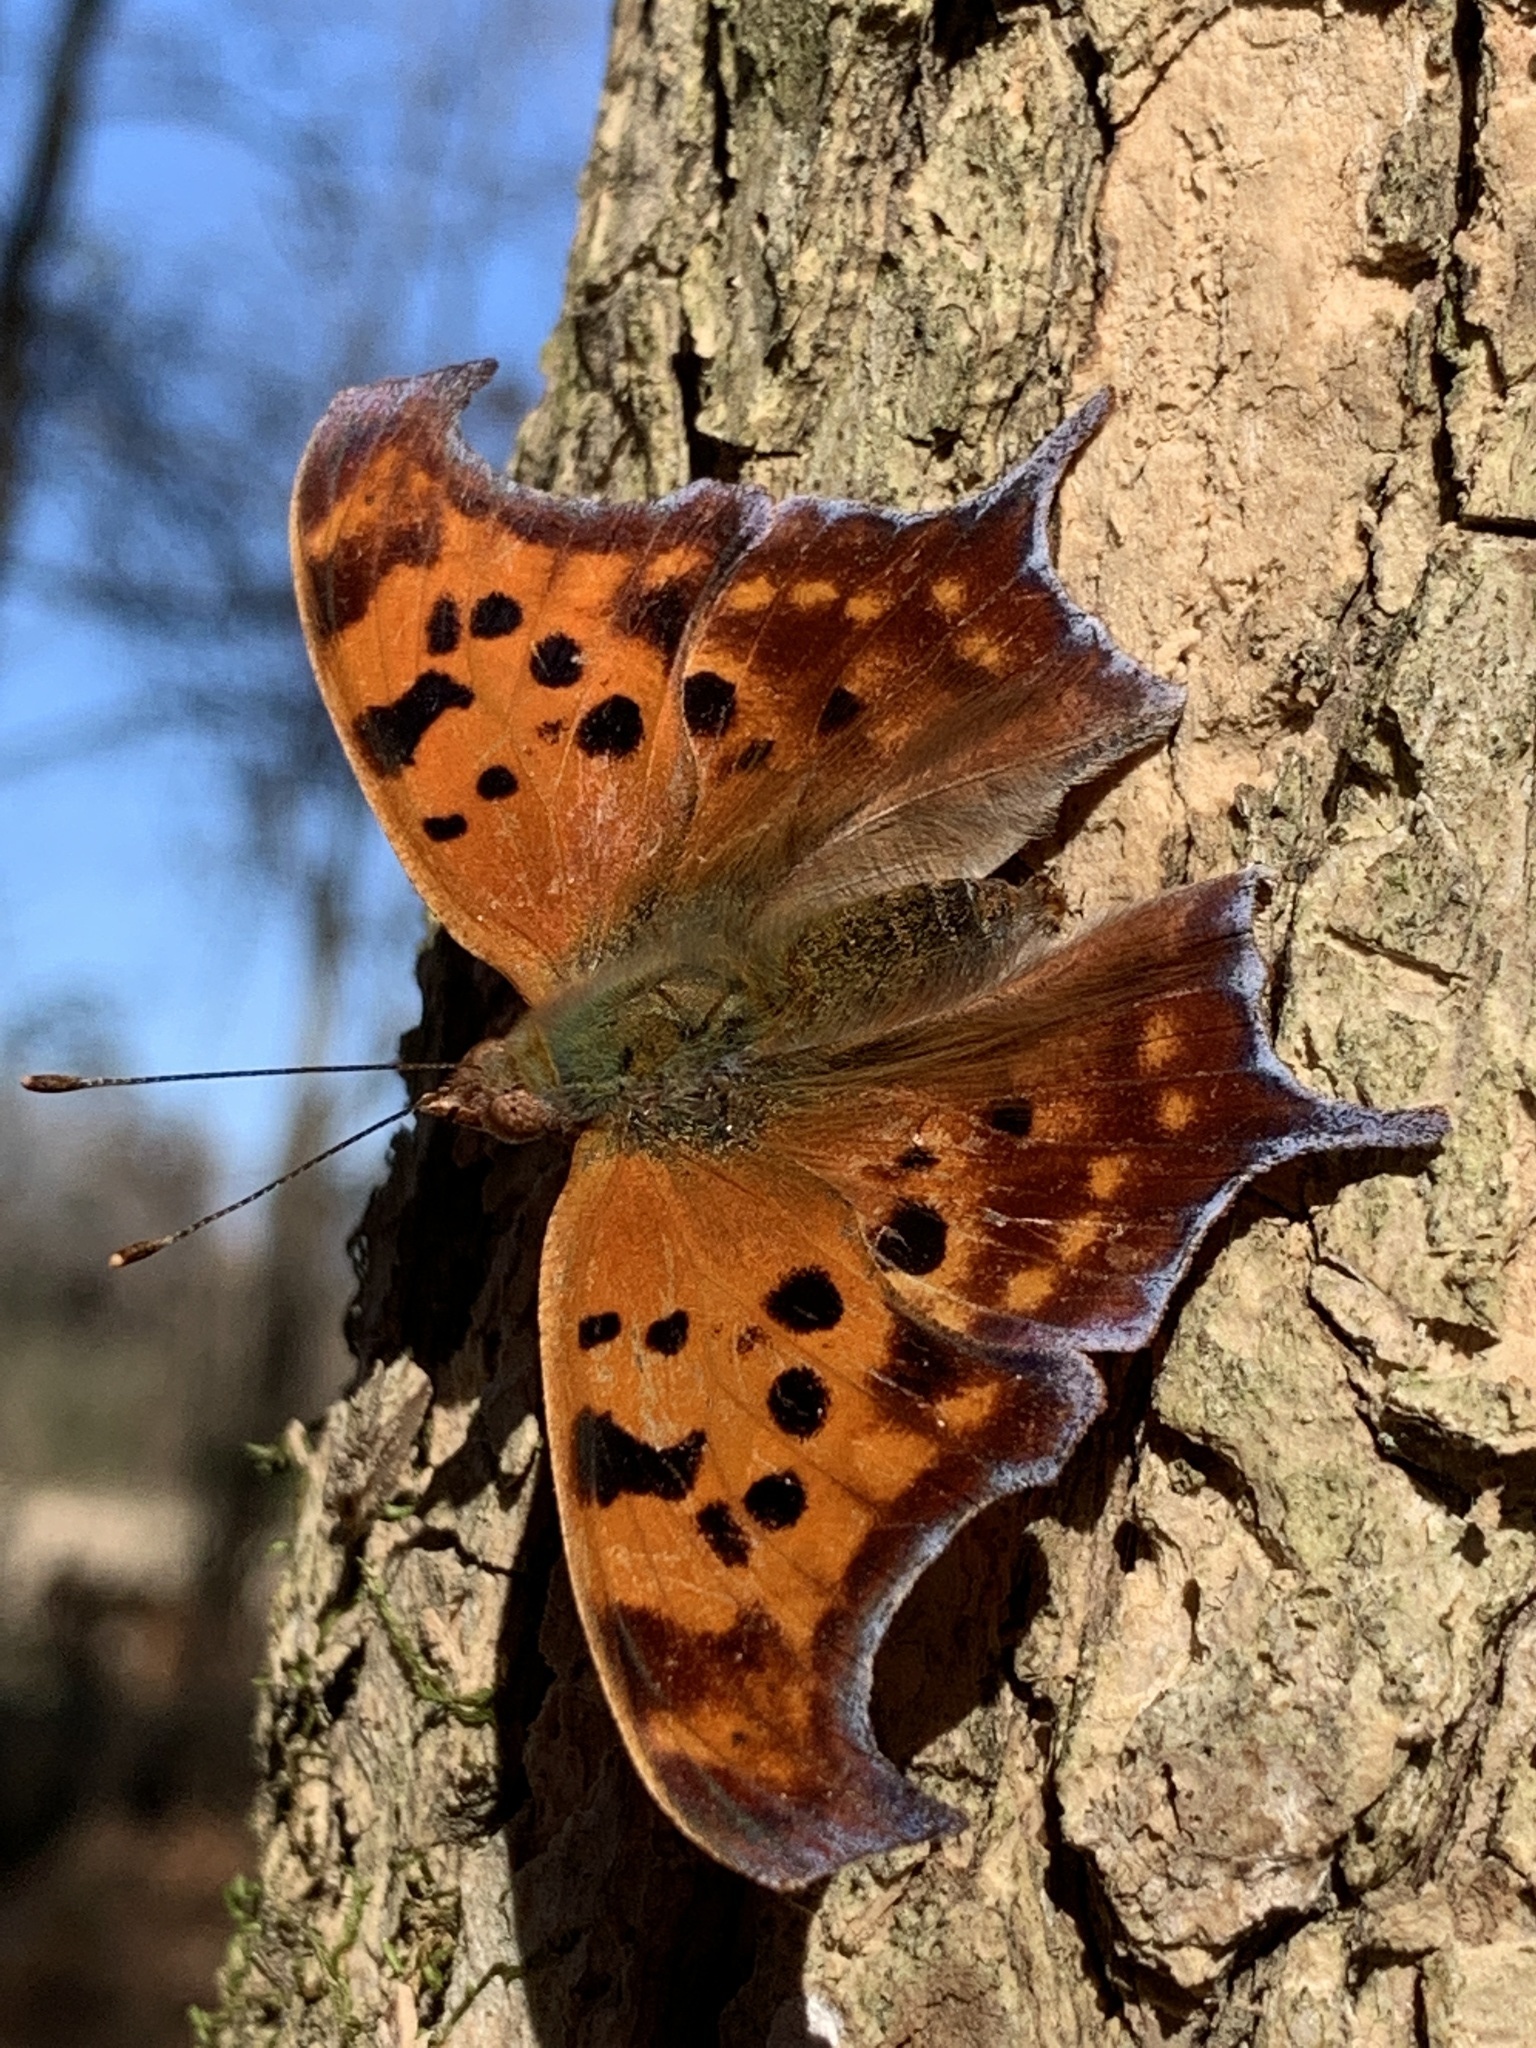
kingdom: Animalia
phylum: Arthropoda
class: Insecta
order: Lepidoptera
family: Nymphalidae
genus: Polygonia
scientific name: Polygonia interrogationis
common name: Question mark
